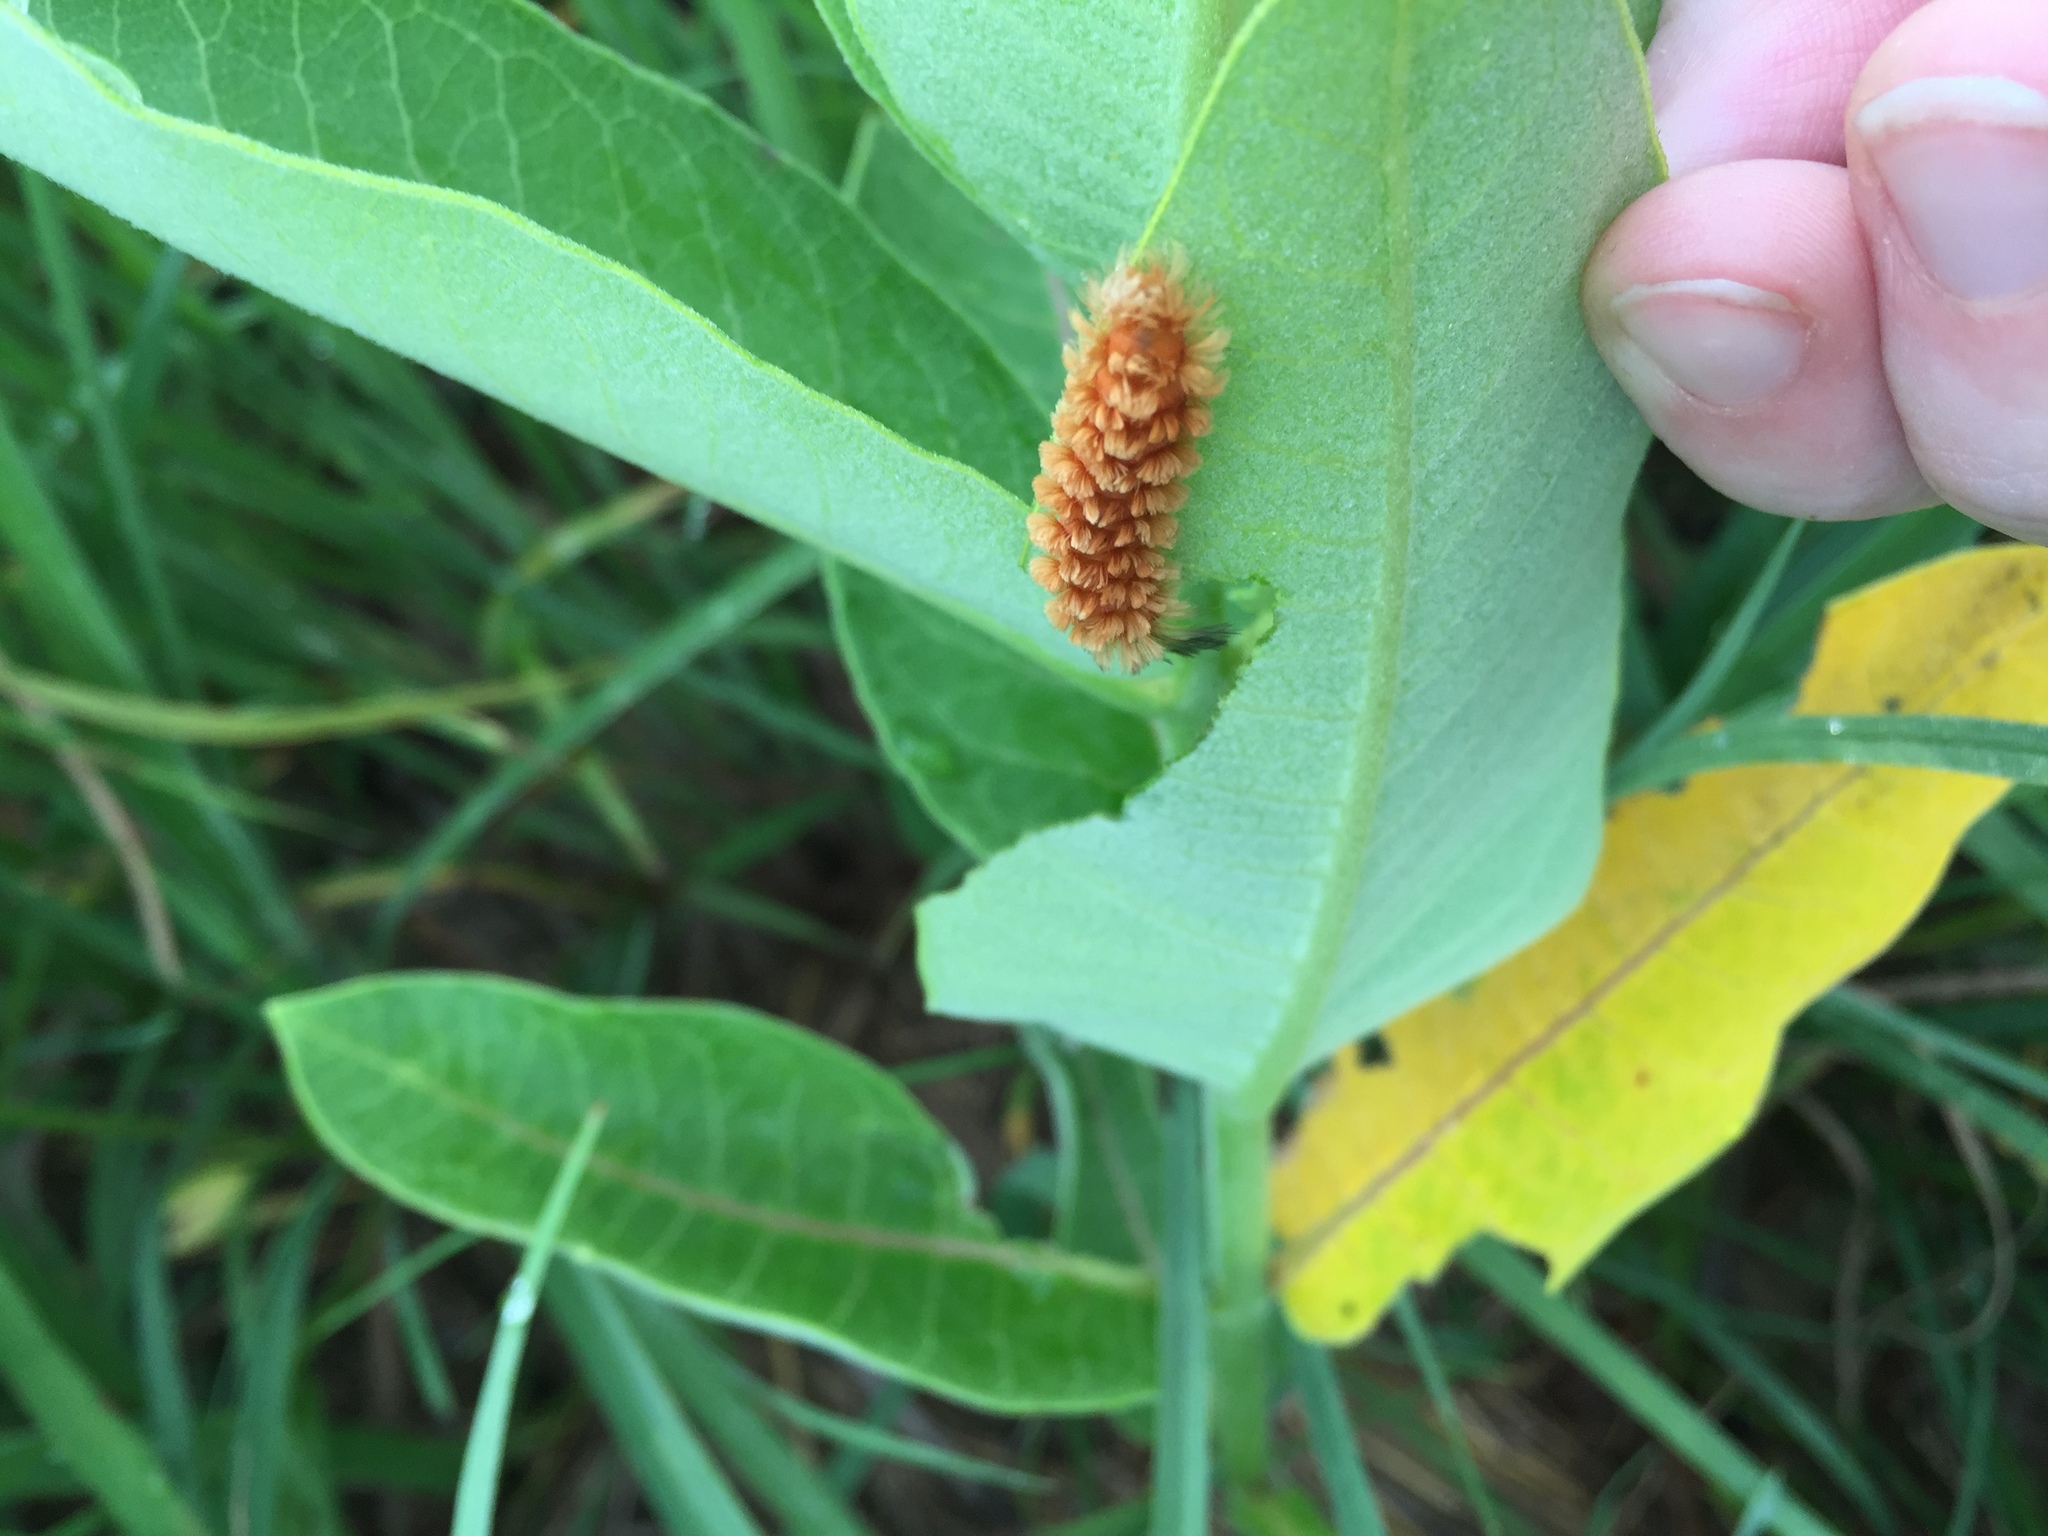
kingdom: Animalia
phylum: Arthropoda
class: Insecta
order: Lepidoptera
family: Erebidae
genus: Cycnia
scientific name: Cycnia collaris
